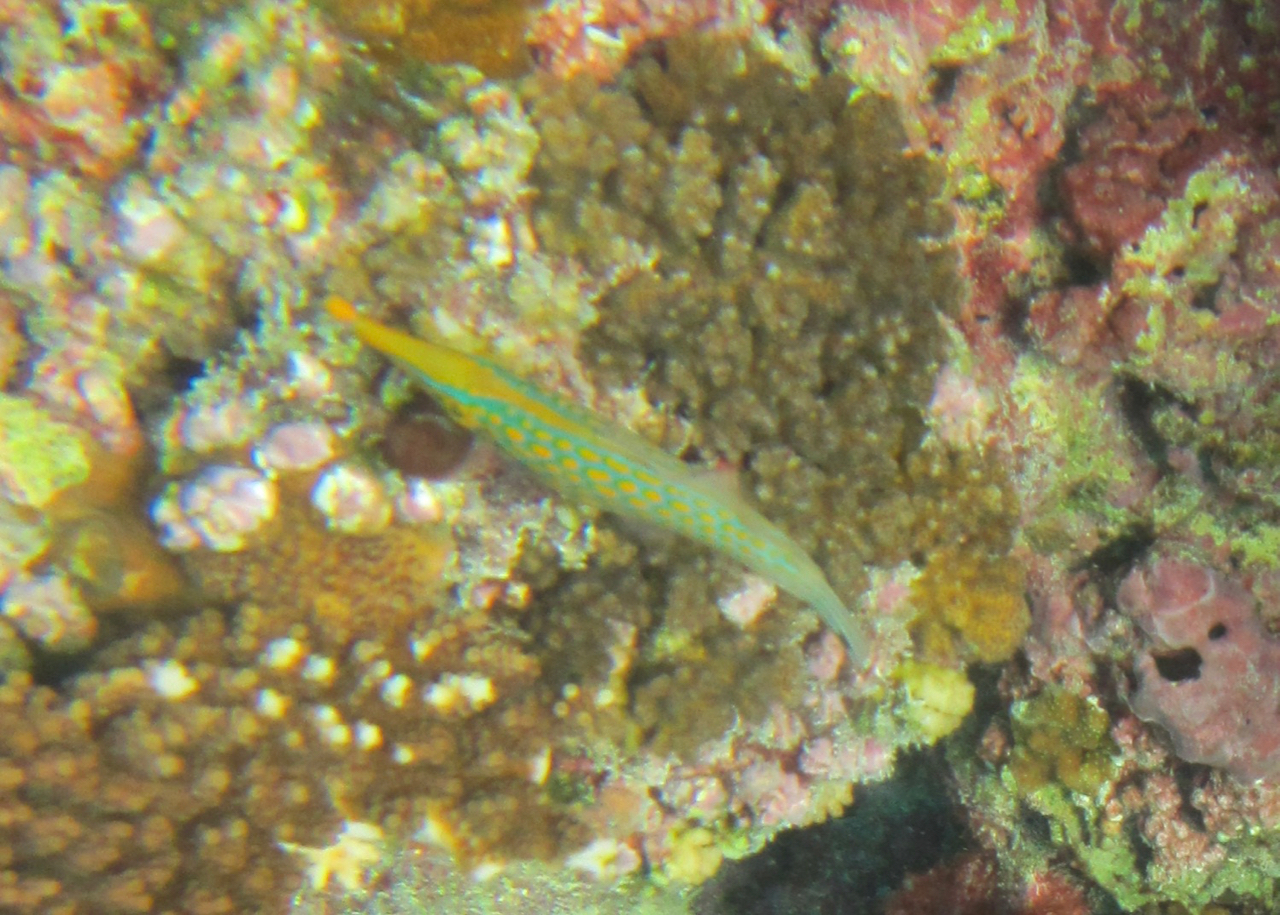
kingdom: Animalia
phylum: Chordata
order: Tetraodontiformes
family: Monacanthidae
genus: Oxymonacanthus
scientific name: Oxymonacanthus longirostris
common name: Beaked leatherjacket
